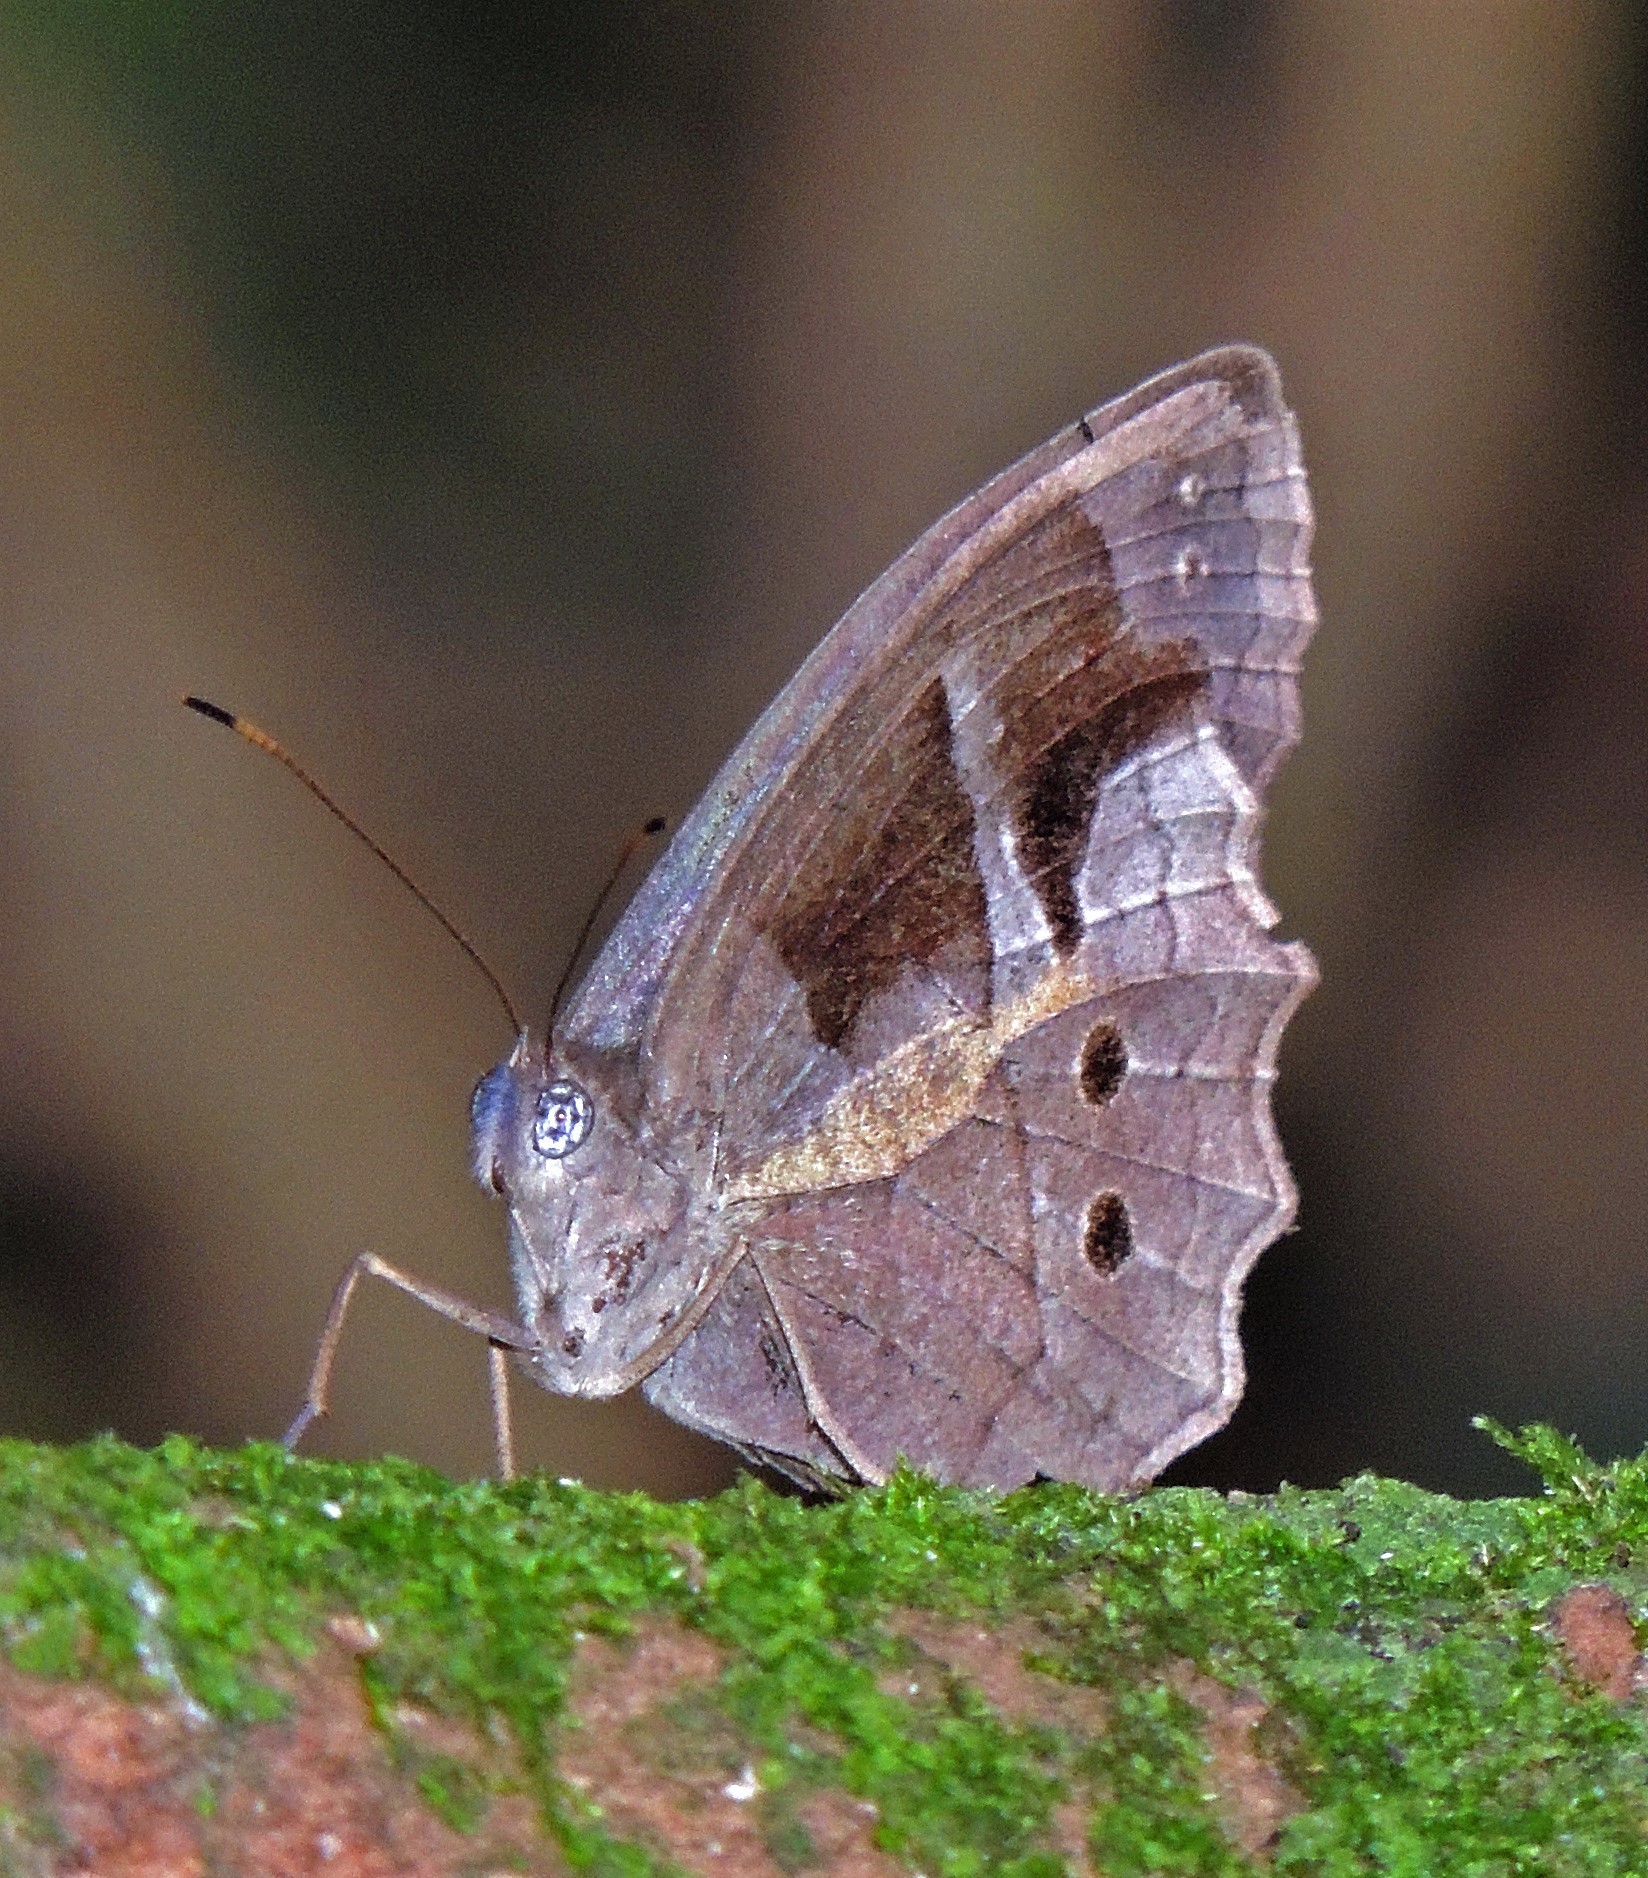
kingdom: Animalia
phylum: Arthropoda
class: Insecta
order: Lepidoptera
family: Nymphalidae
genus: Posttaygetis
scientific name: Posttaygetis penelea
